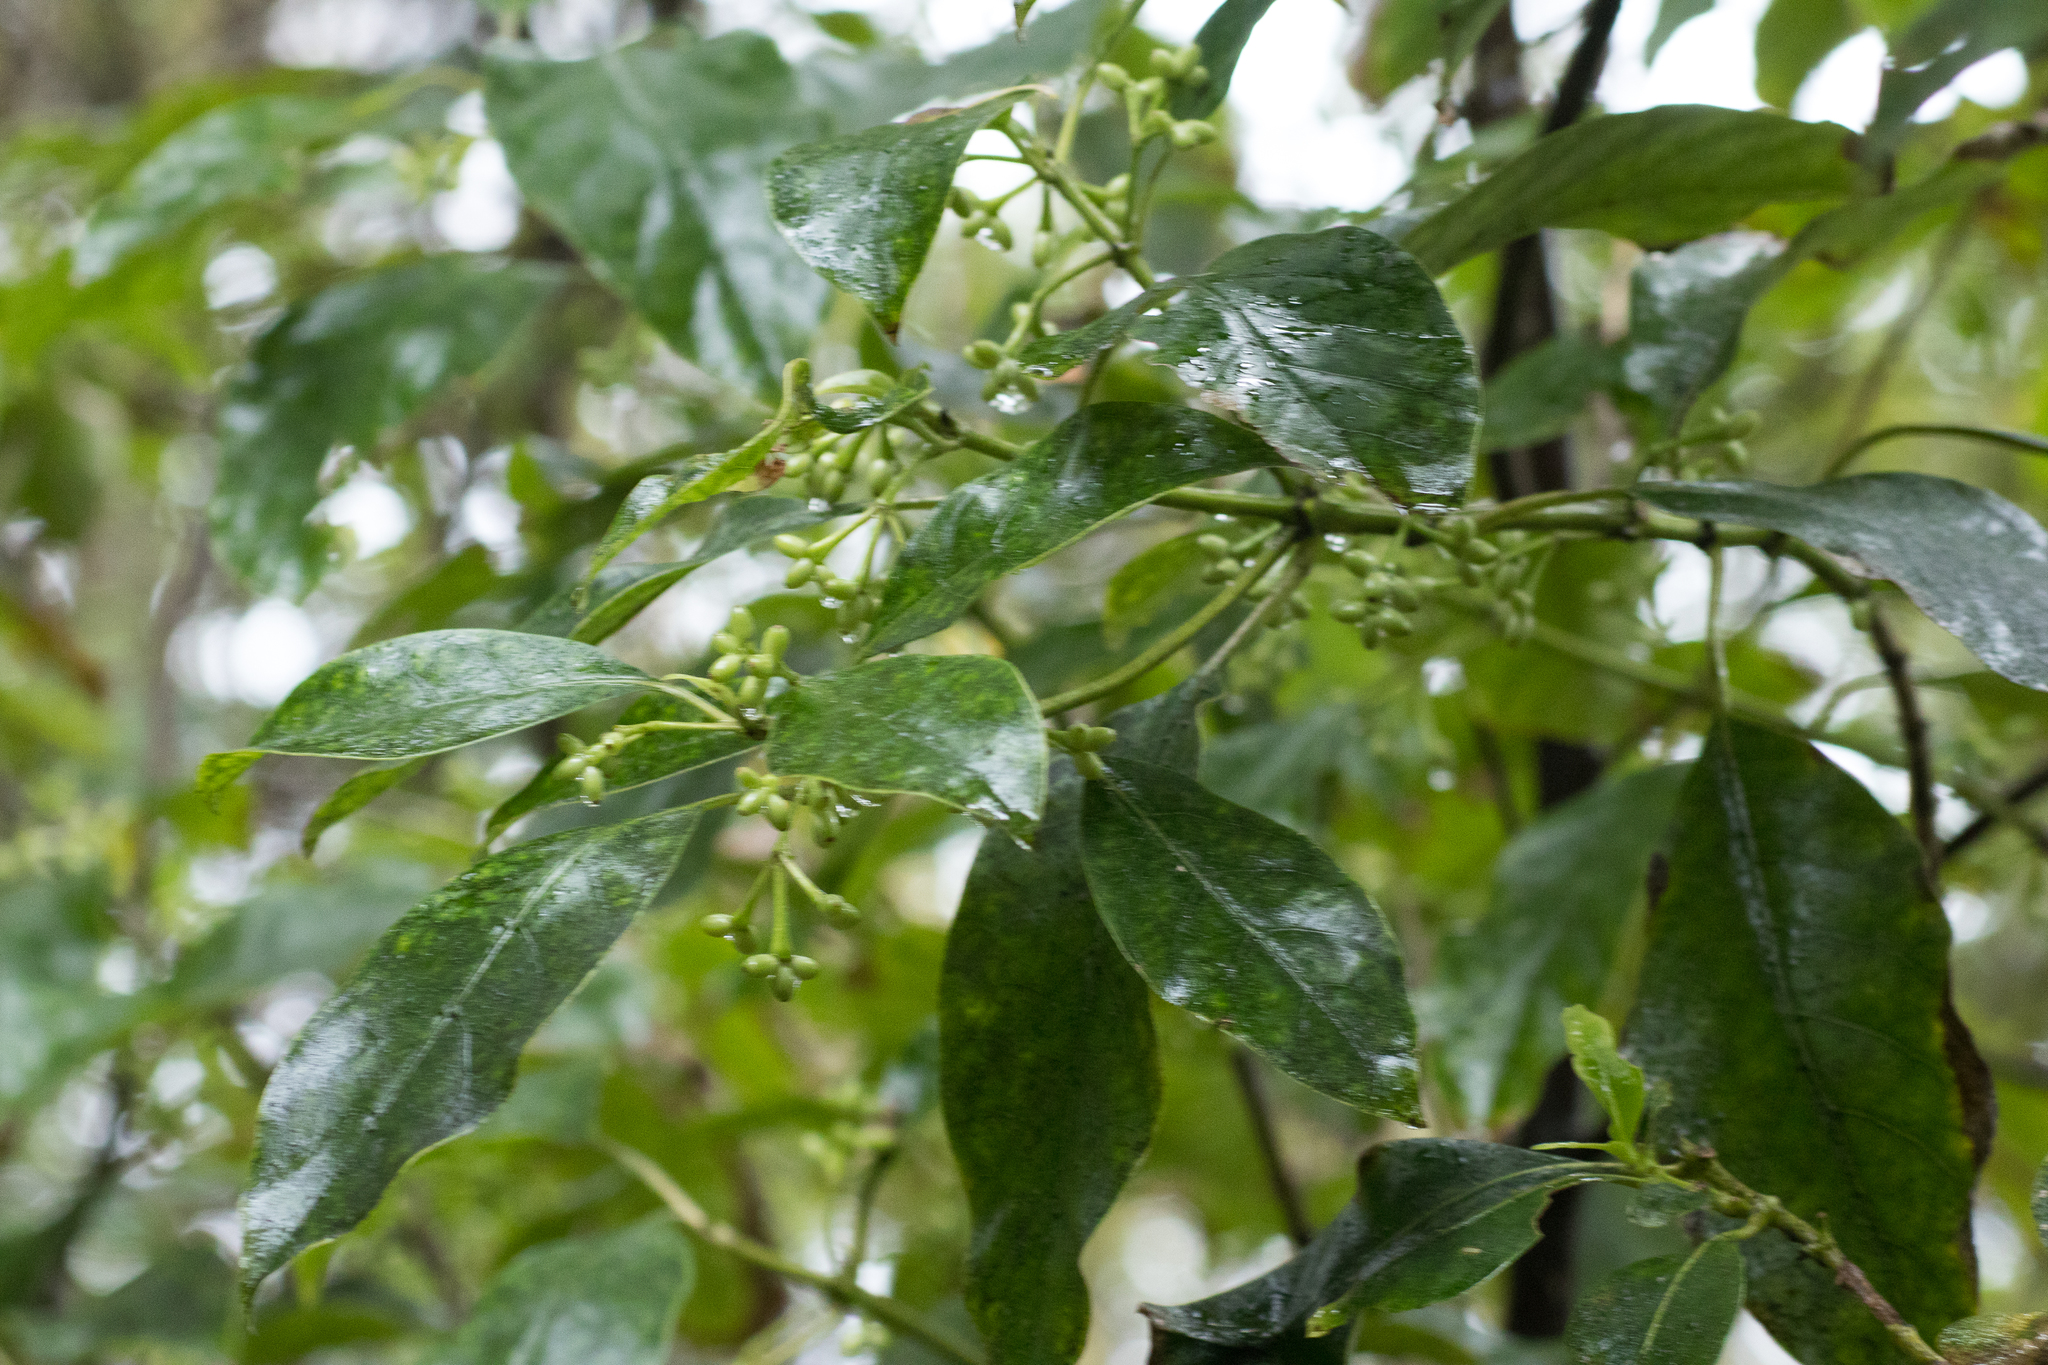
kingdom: Plantae
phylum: Tracheophyta
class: Magnoliopsida
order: Gentianales
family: Rubiaceae
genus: Coprosma
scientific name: Coprosma autumnalis
